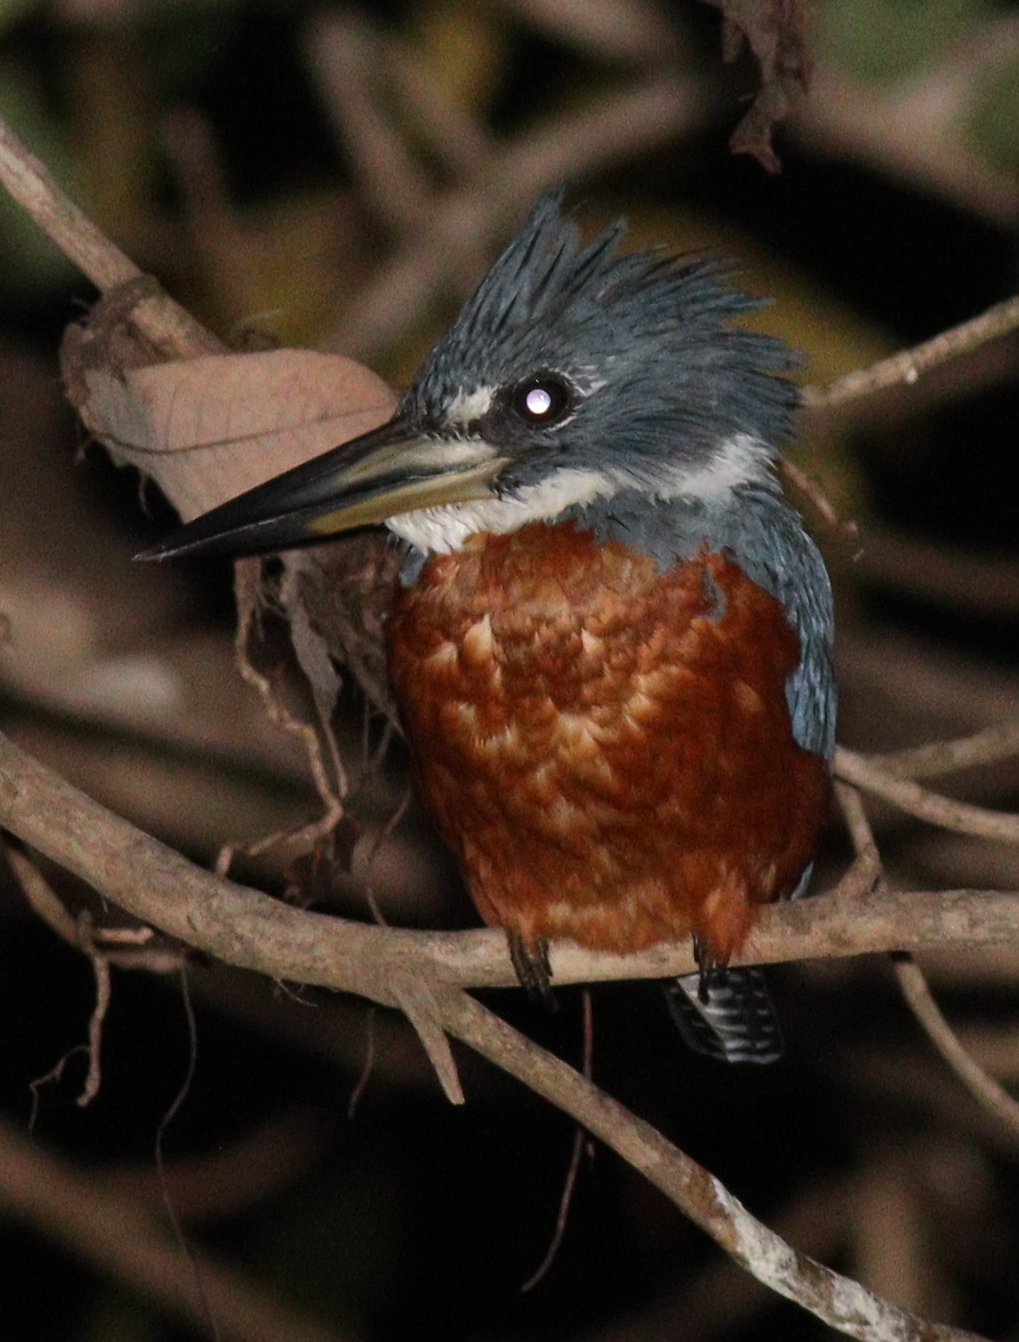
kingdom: Animalia
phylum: Chordata
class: Aves
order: Coraciiformes
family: Alcedinidae
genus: Megaceryle
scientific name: Megaceryle torquata
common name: Ringed kingfisher
